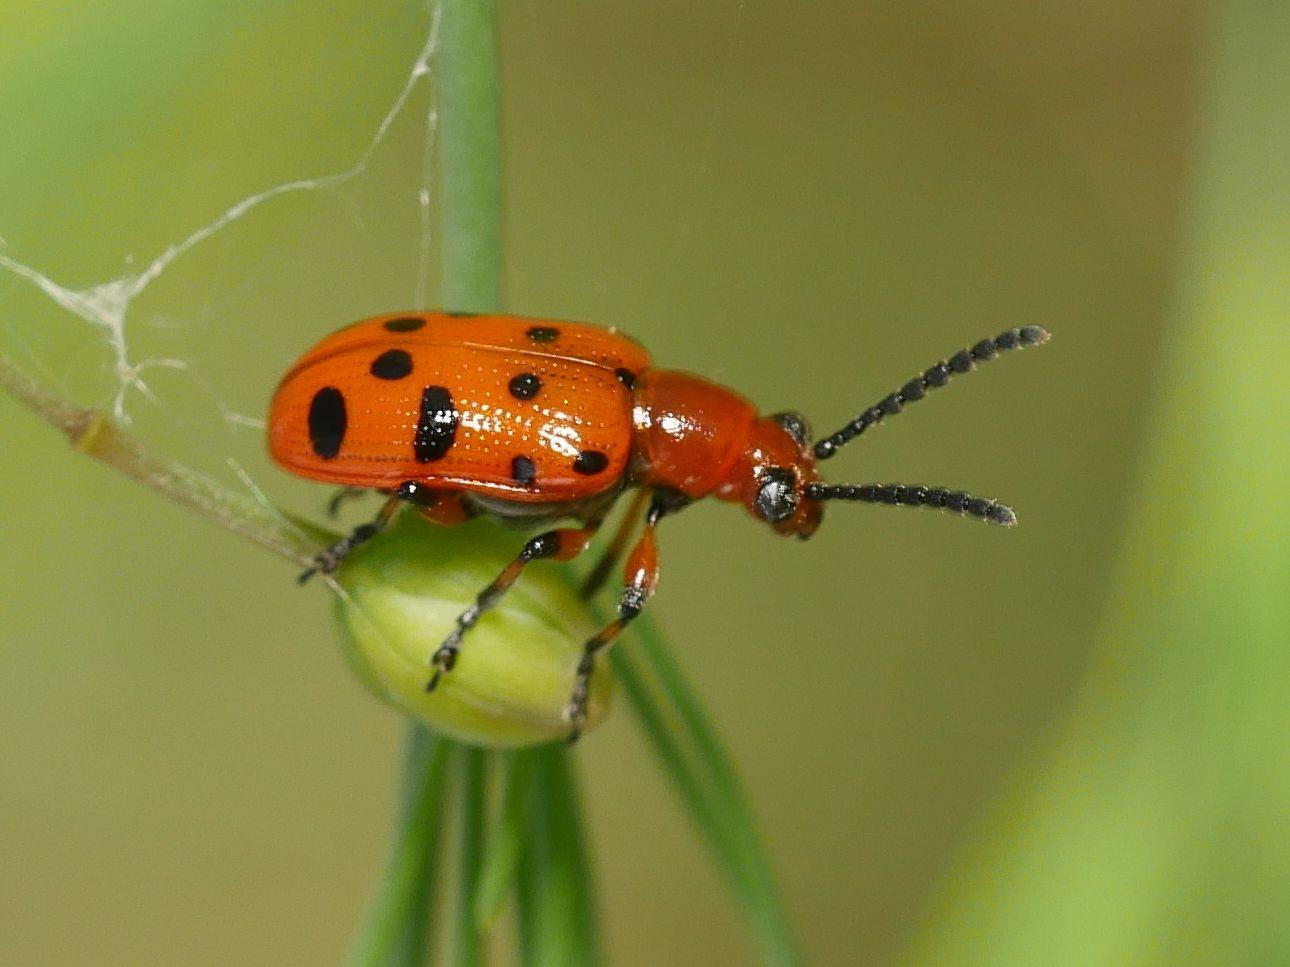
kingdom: Animalia
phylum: Arthropoda
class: Insecta
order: Coleoptera
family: Chrysomelidae
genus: Crioceris
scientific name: Crioceris duodecimpunctata
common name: Twelve-spotted asparagus beetle
